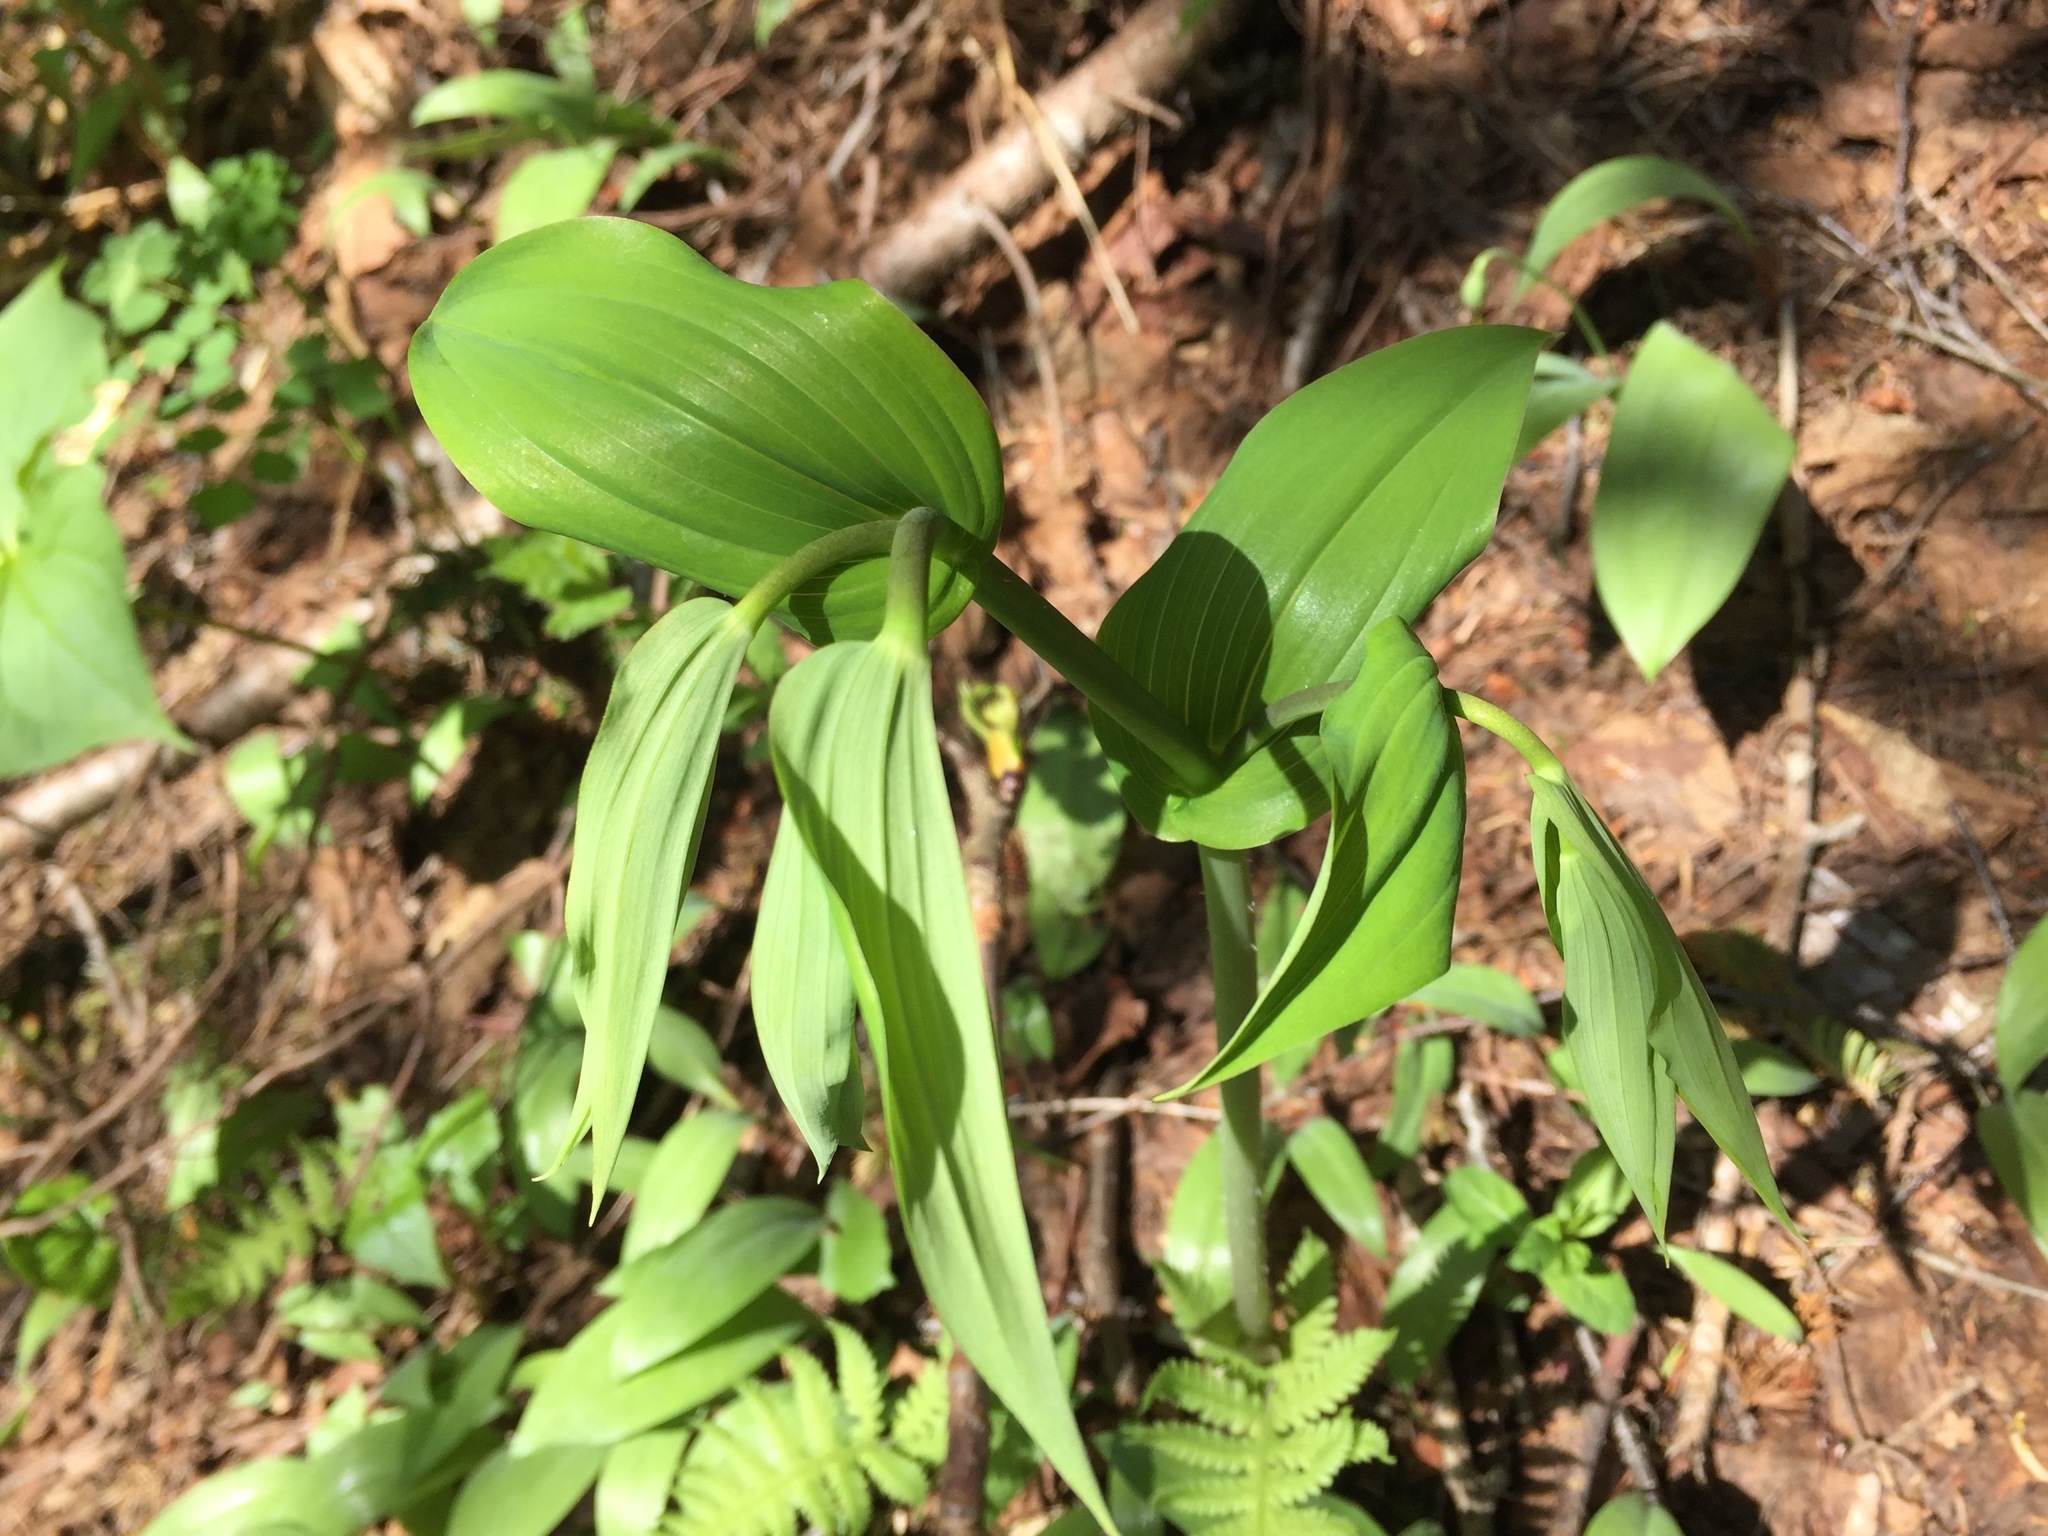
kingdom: Plantae
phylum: Tracheophyta
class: Liliopsida
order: Liliales
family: Liliaceae
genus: Streptopus
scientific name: Streptopus amplexifolius
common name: Clasp twisted stalk
